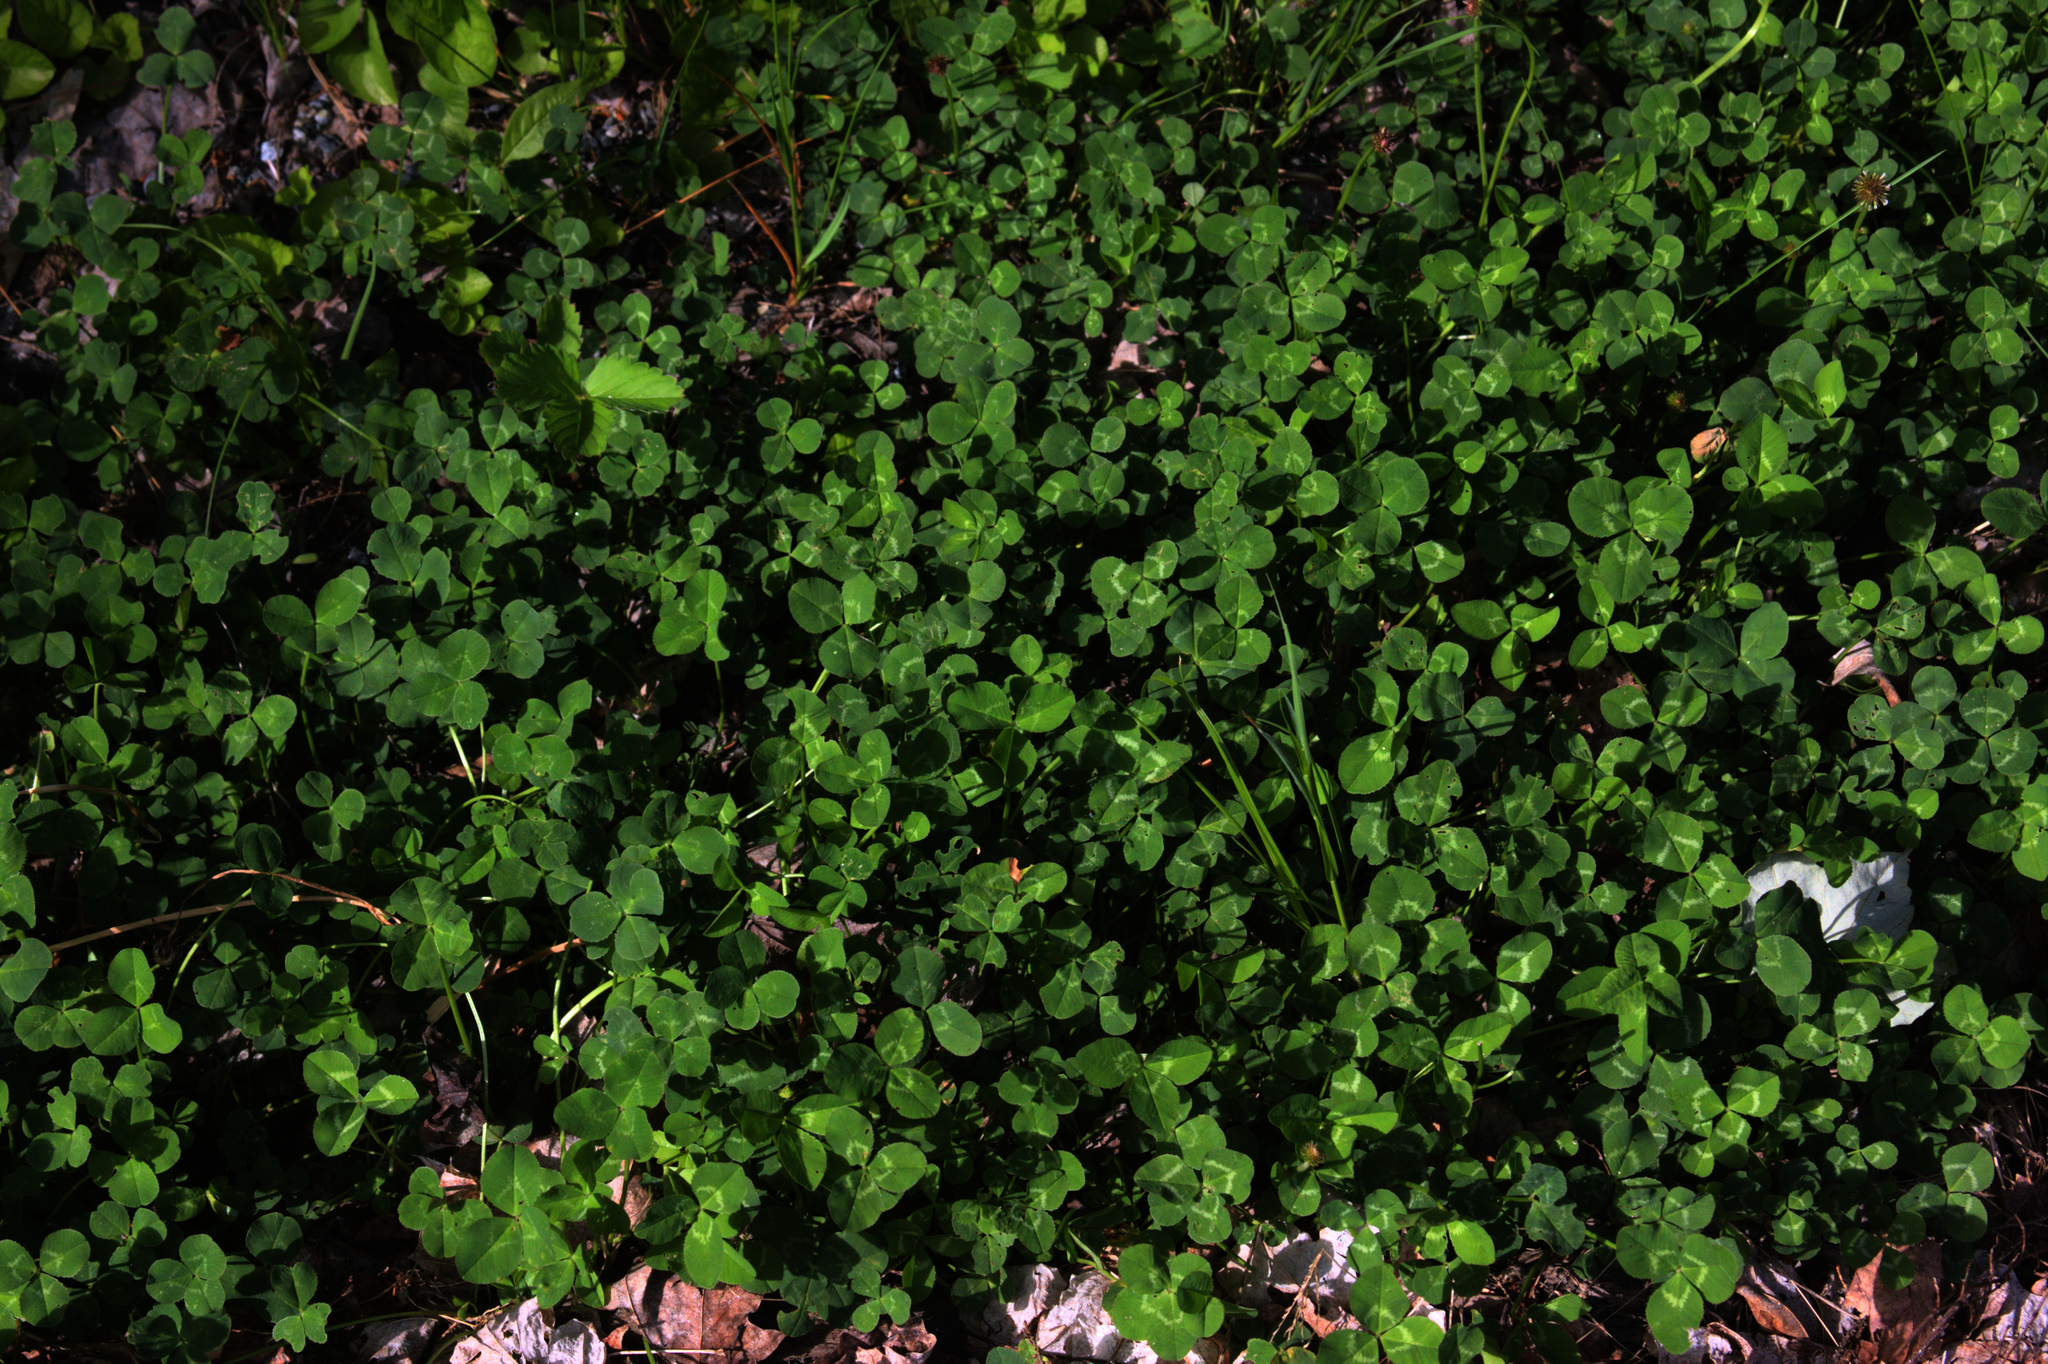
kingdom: Plantae
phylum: Tracheophyta
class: Magnoliopsida
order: Fabales
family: Fabaceae
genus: Trifolium
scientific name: Trifolium repens
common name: White clover
